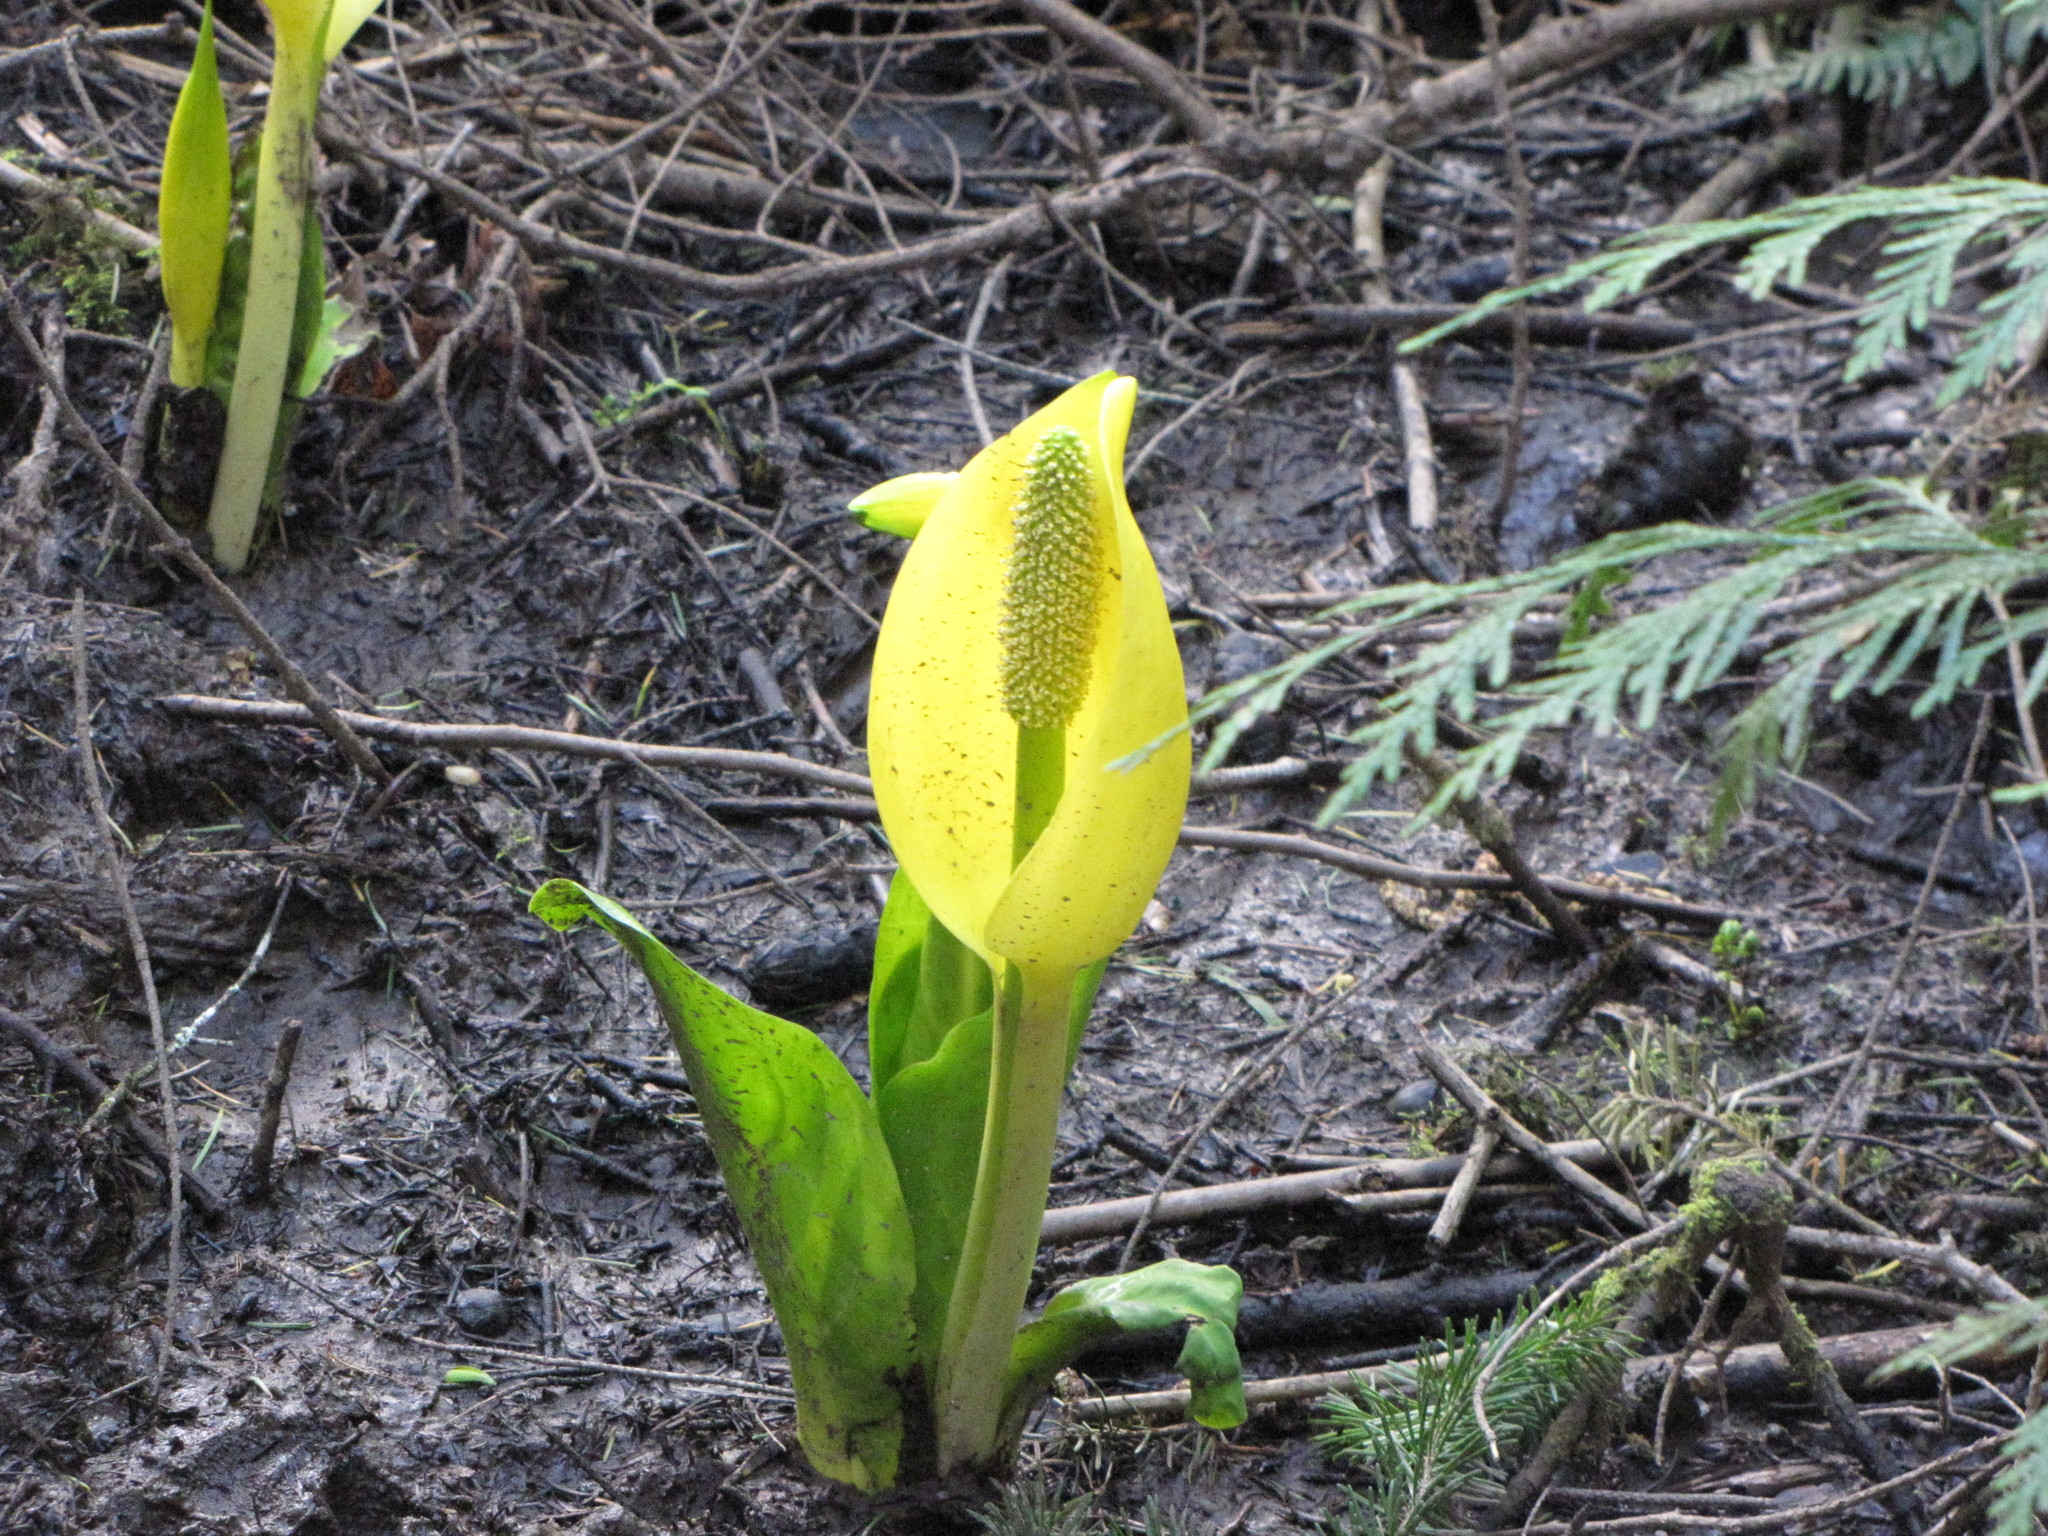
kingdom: Plantae
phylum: Tracheophyta
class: Liliopsida
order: Alismatales
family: Araceae
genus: Lysichiton
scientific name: Lysichiton americanus
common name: American skunk cabbage
